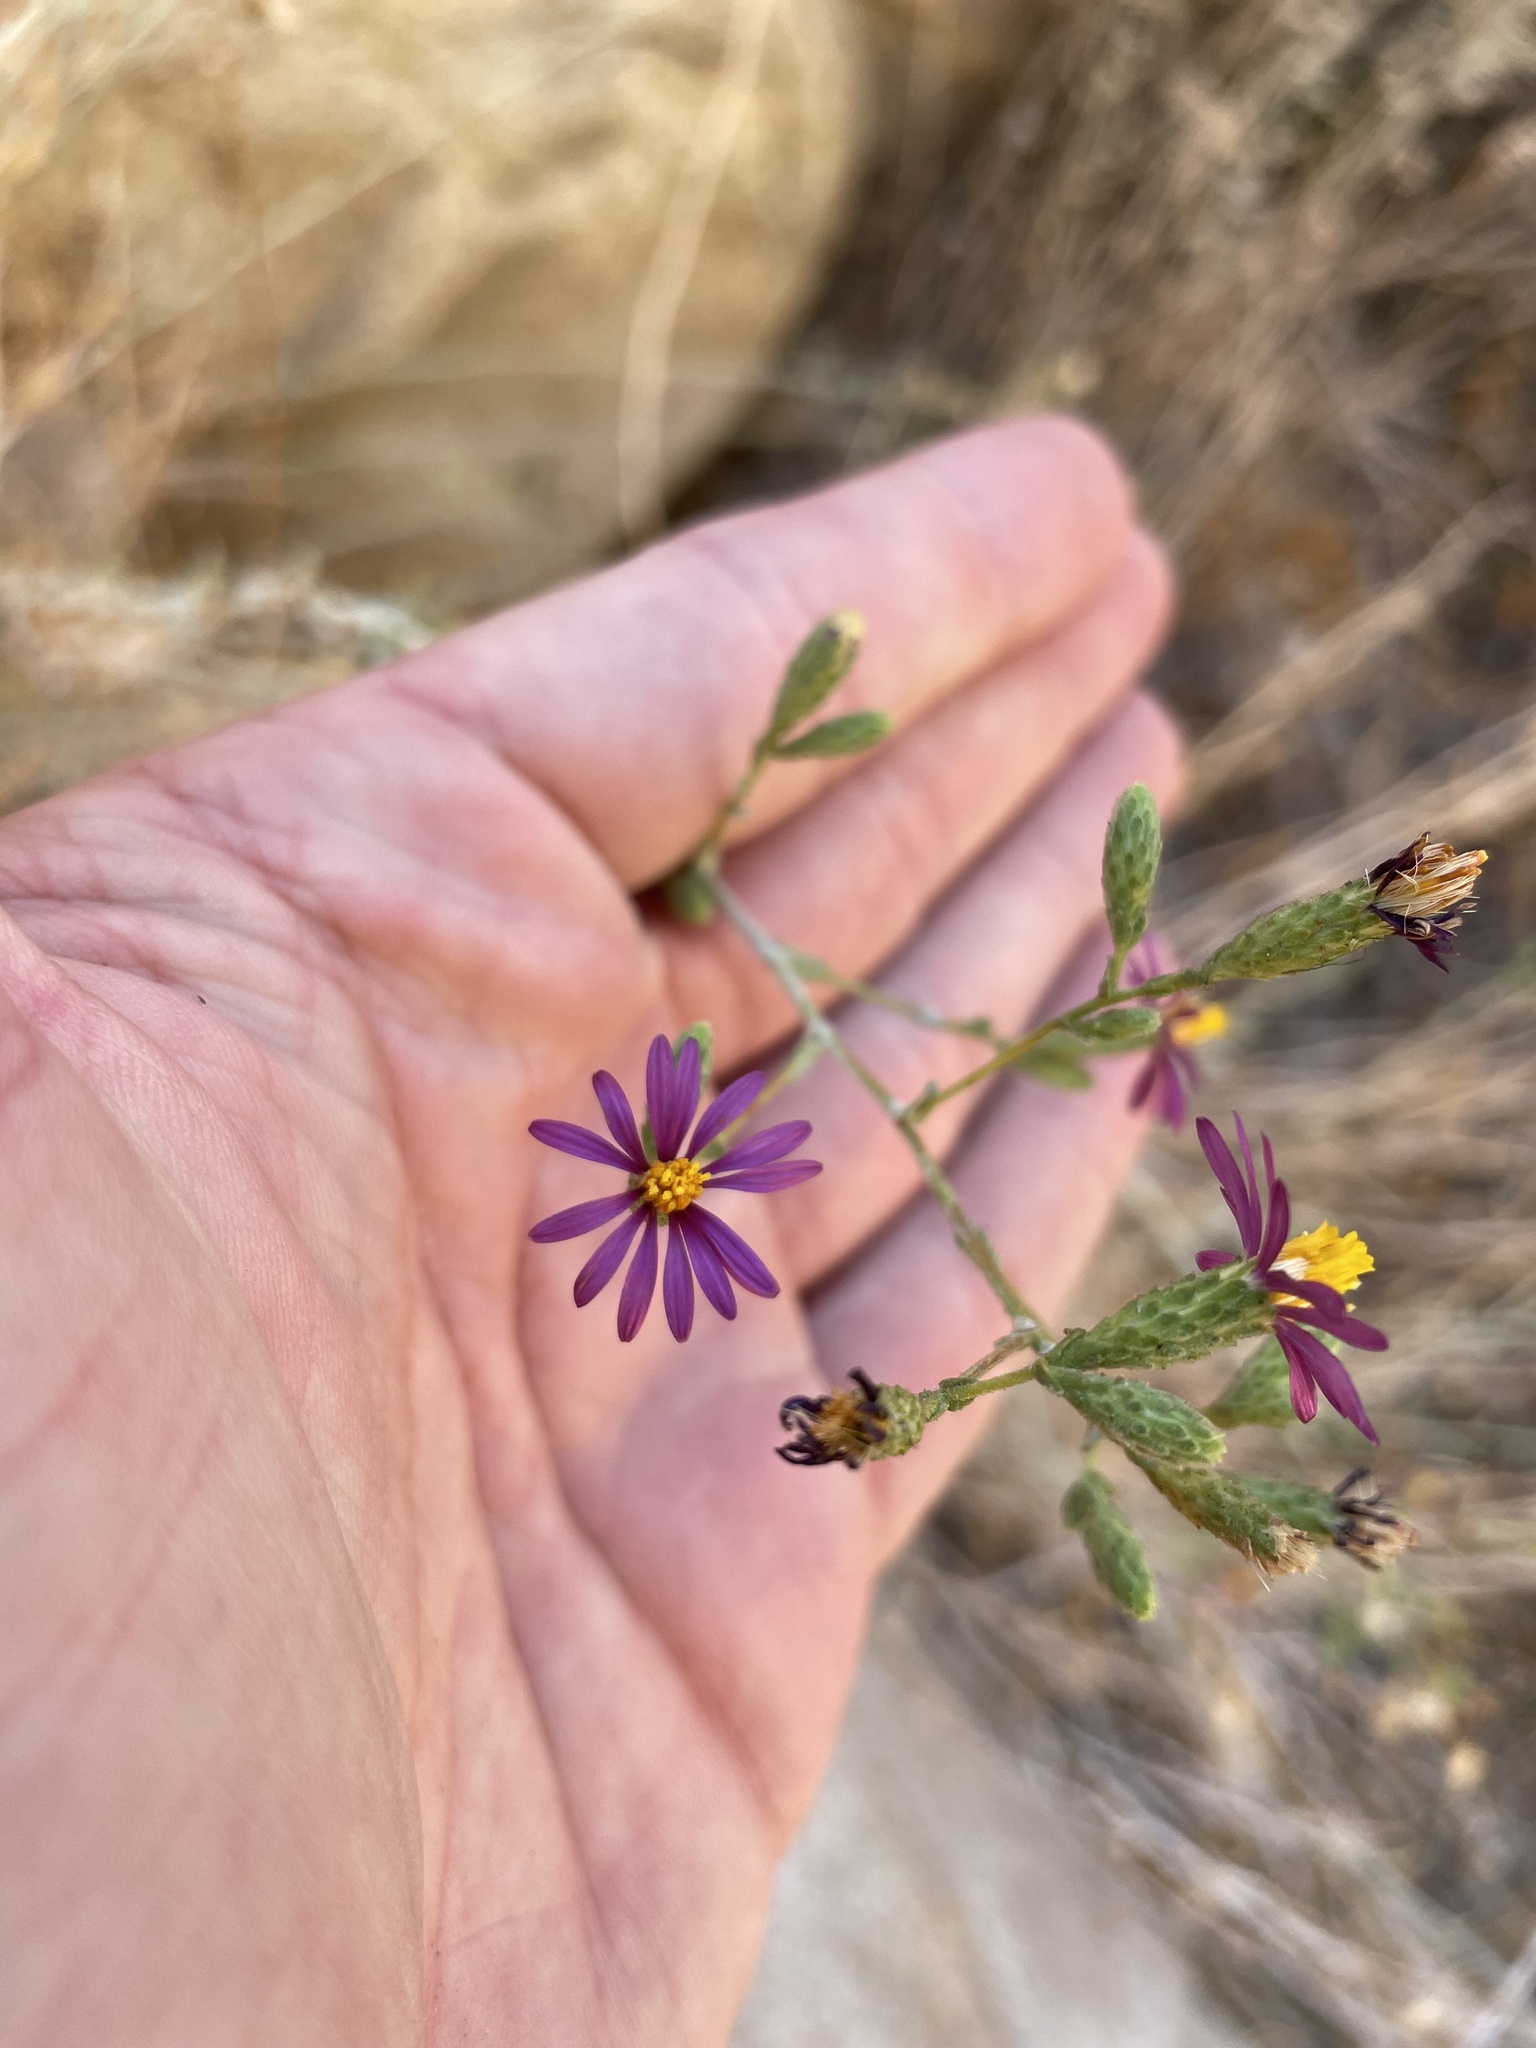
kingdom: Plantae
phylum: Tracheophyta
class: Magnoliopsida
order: Asterales
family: Asteraceae
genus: Corethrogyne
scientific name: Corethrogyne filaginifolia
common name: Sand-aster
